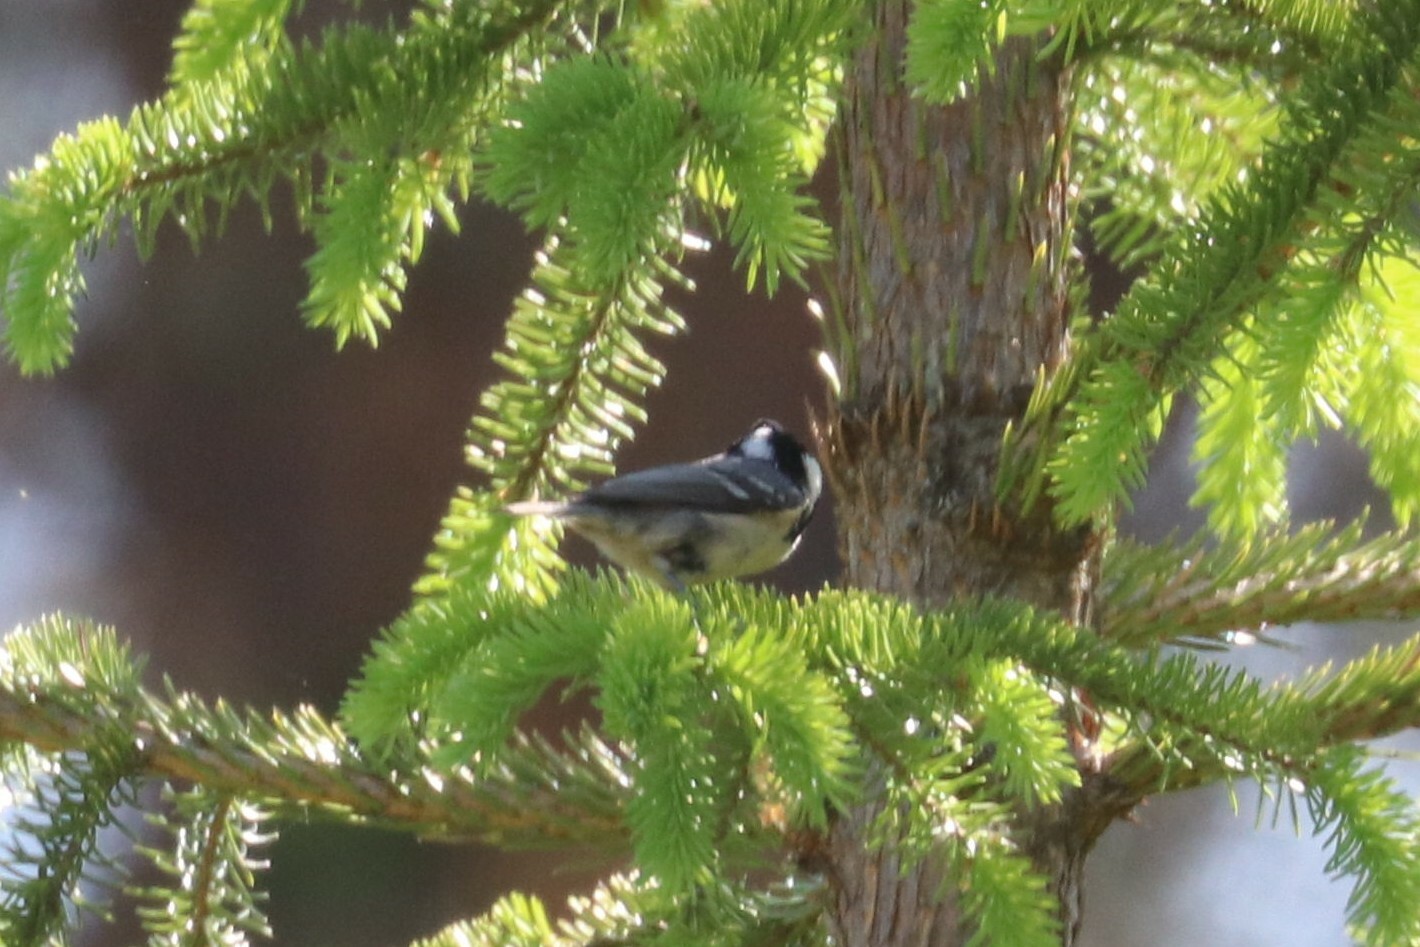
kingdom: Animalia
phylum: Chordata
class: Aves
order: Passeriformes
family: Paridae
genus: Periparus
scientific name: Periparus ater
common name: Coal tit
